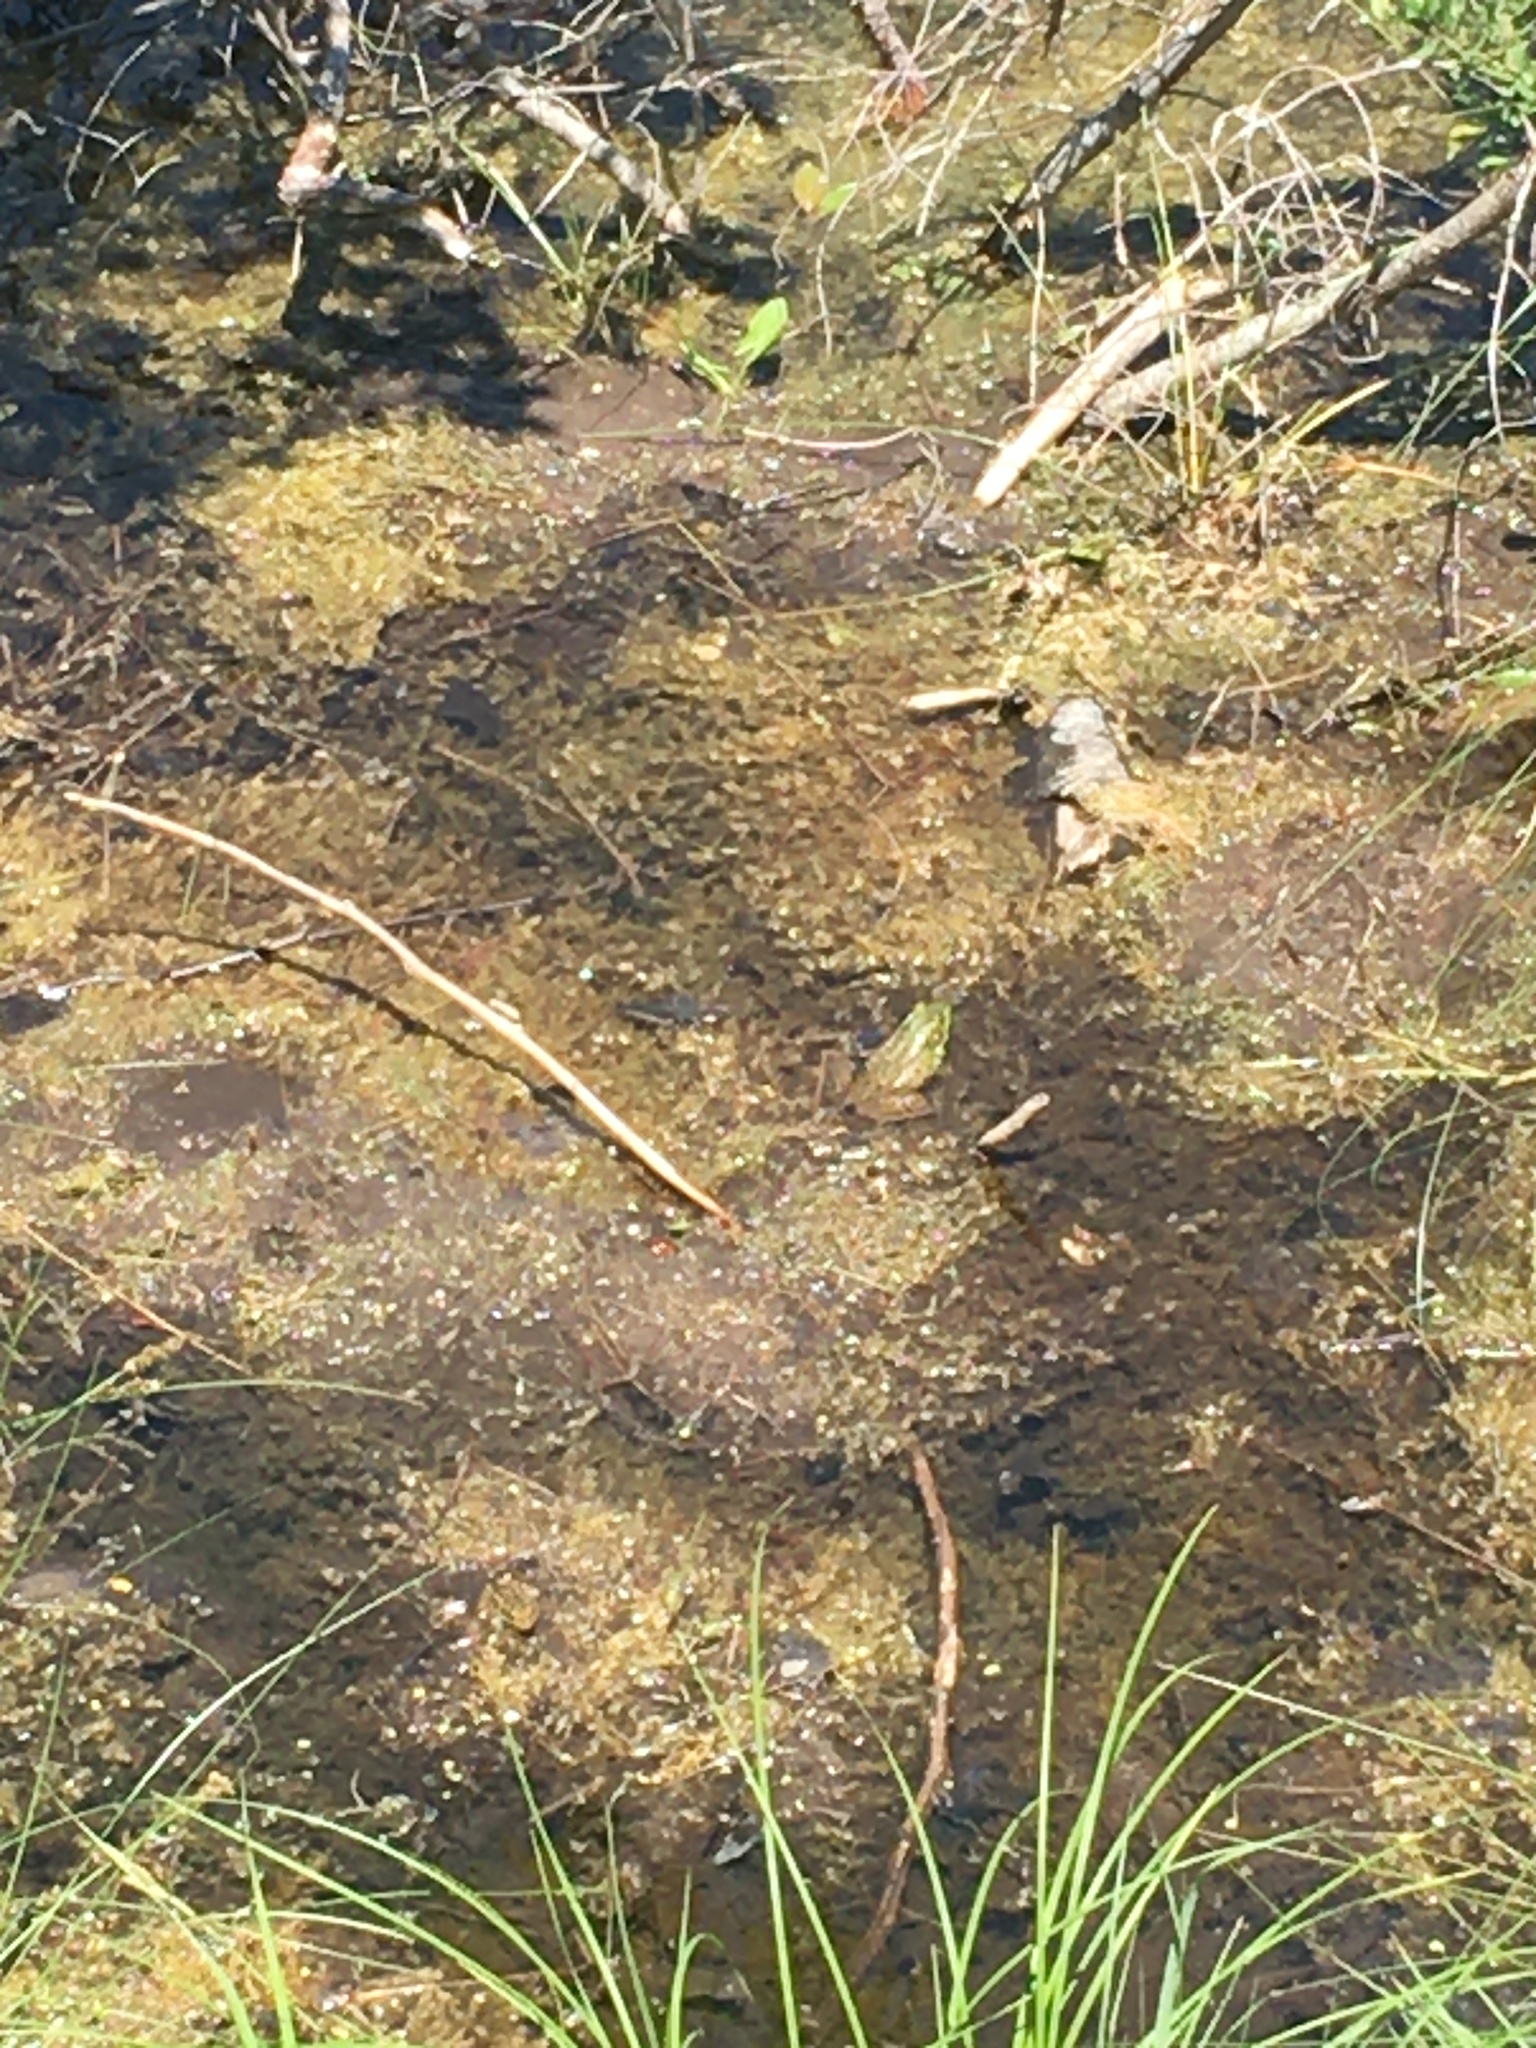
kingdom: Animalia
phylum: Chordata
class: Amphibia
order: Anura
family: Ranidae
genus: Lithobates
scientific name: Lithobates clamitans
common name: Green frog
